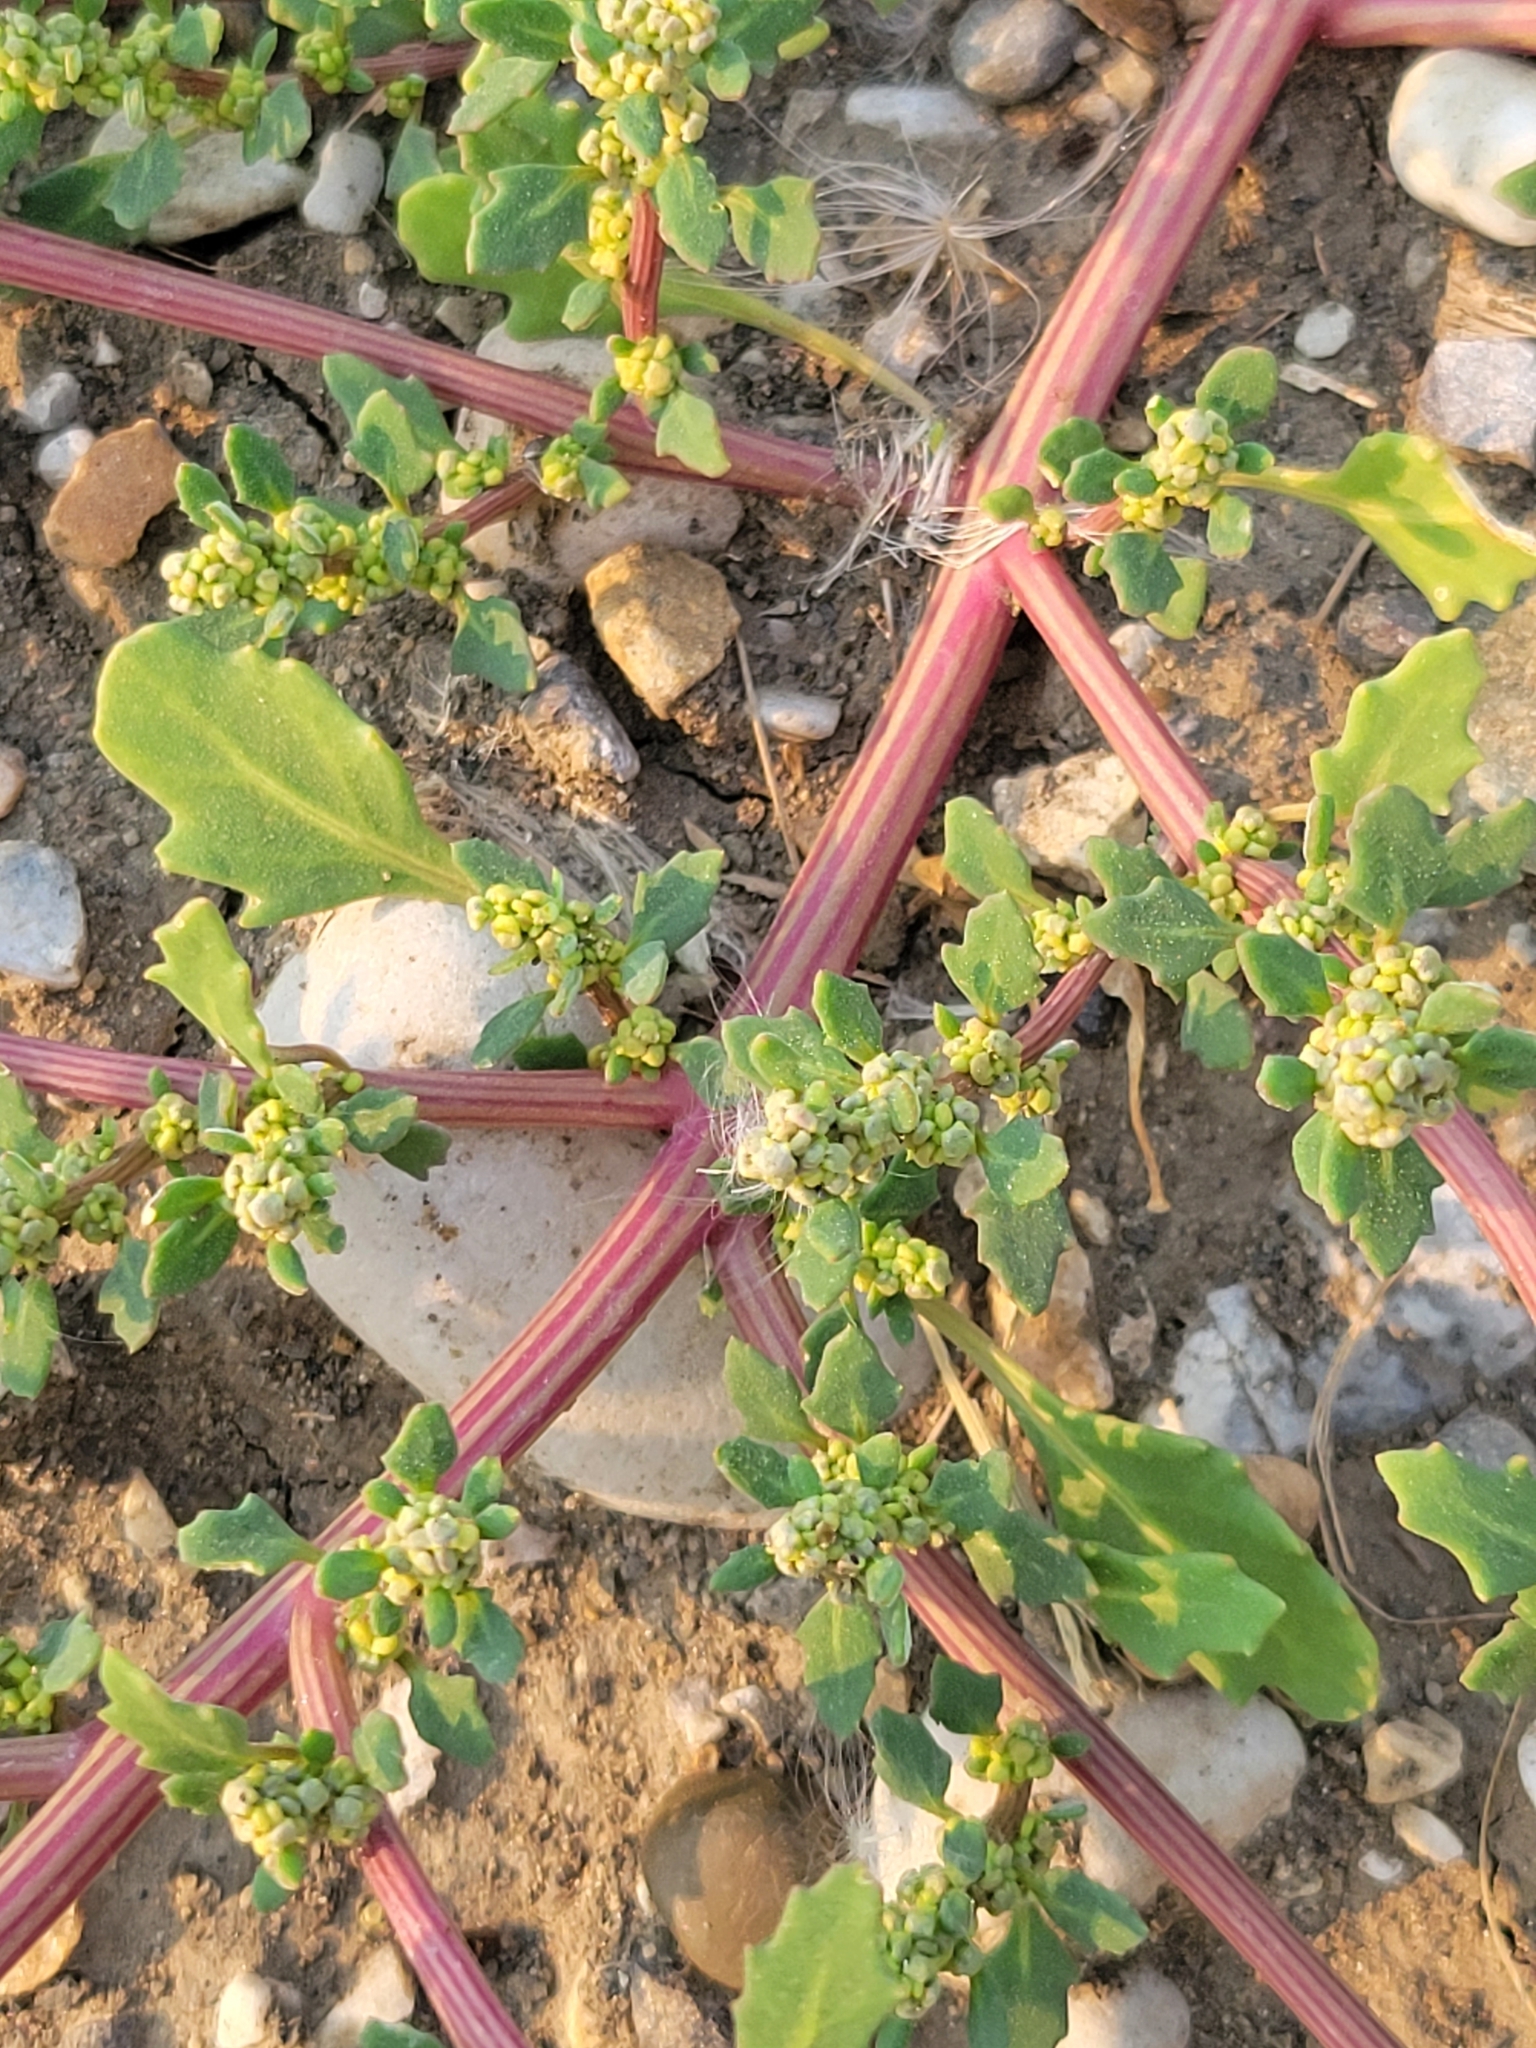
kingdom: Plantae
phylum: Tracheophyta
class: Magnoliopsida
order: Caryophyllales
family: Amaranthaceae
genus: Oxybasis
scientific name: Oxybasis glauca
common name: Glaucous goosefoot
